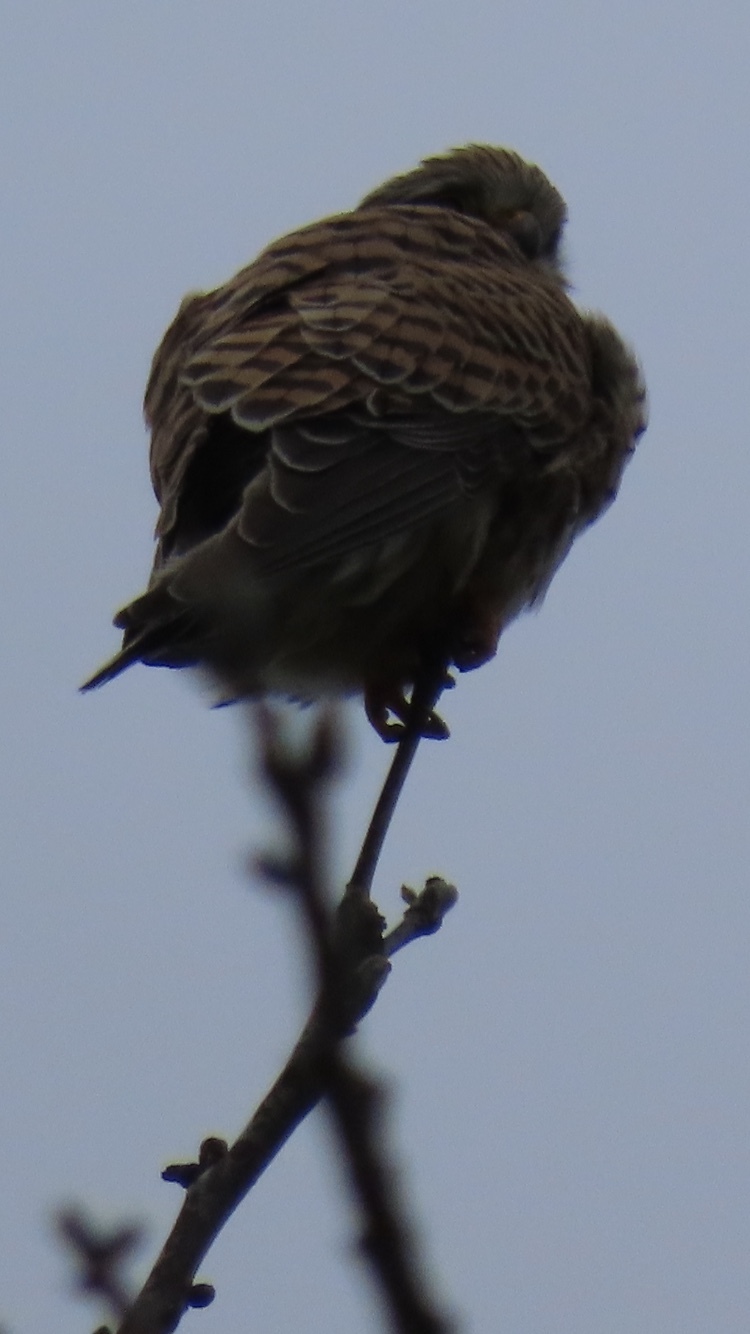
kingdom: Animalia
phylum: Chordata
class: Aves
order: Falconiformes
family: Falconidae
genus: Falco
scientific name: Falco tinnunculus
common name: Common kestrel
